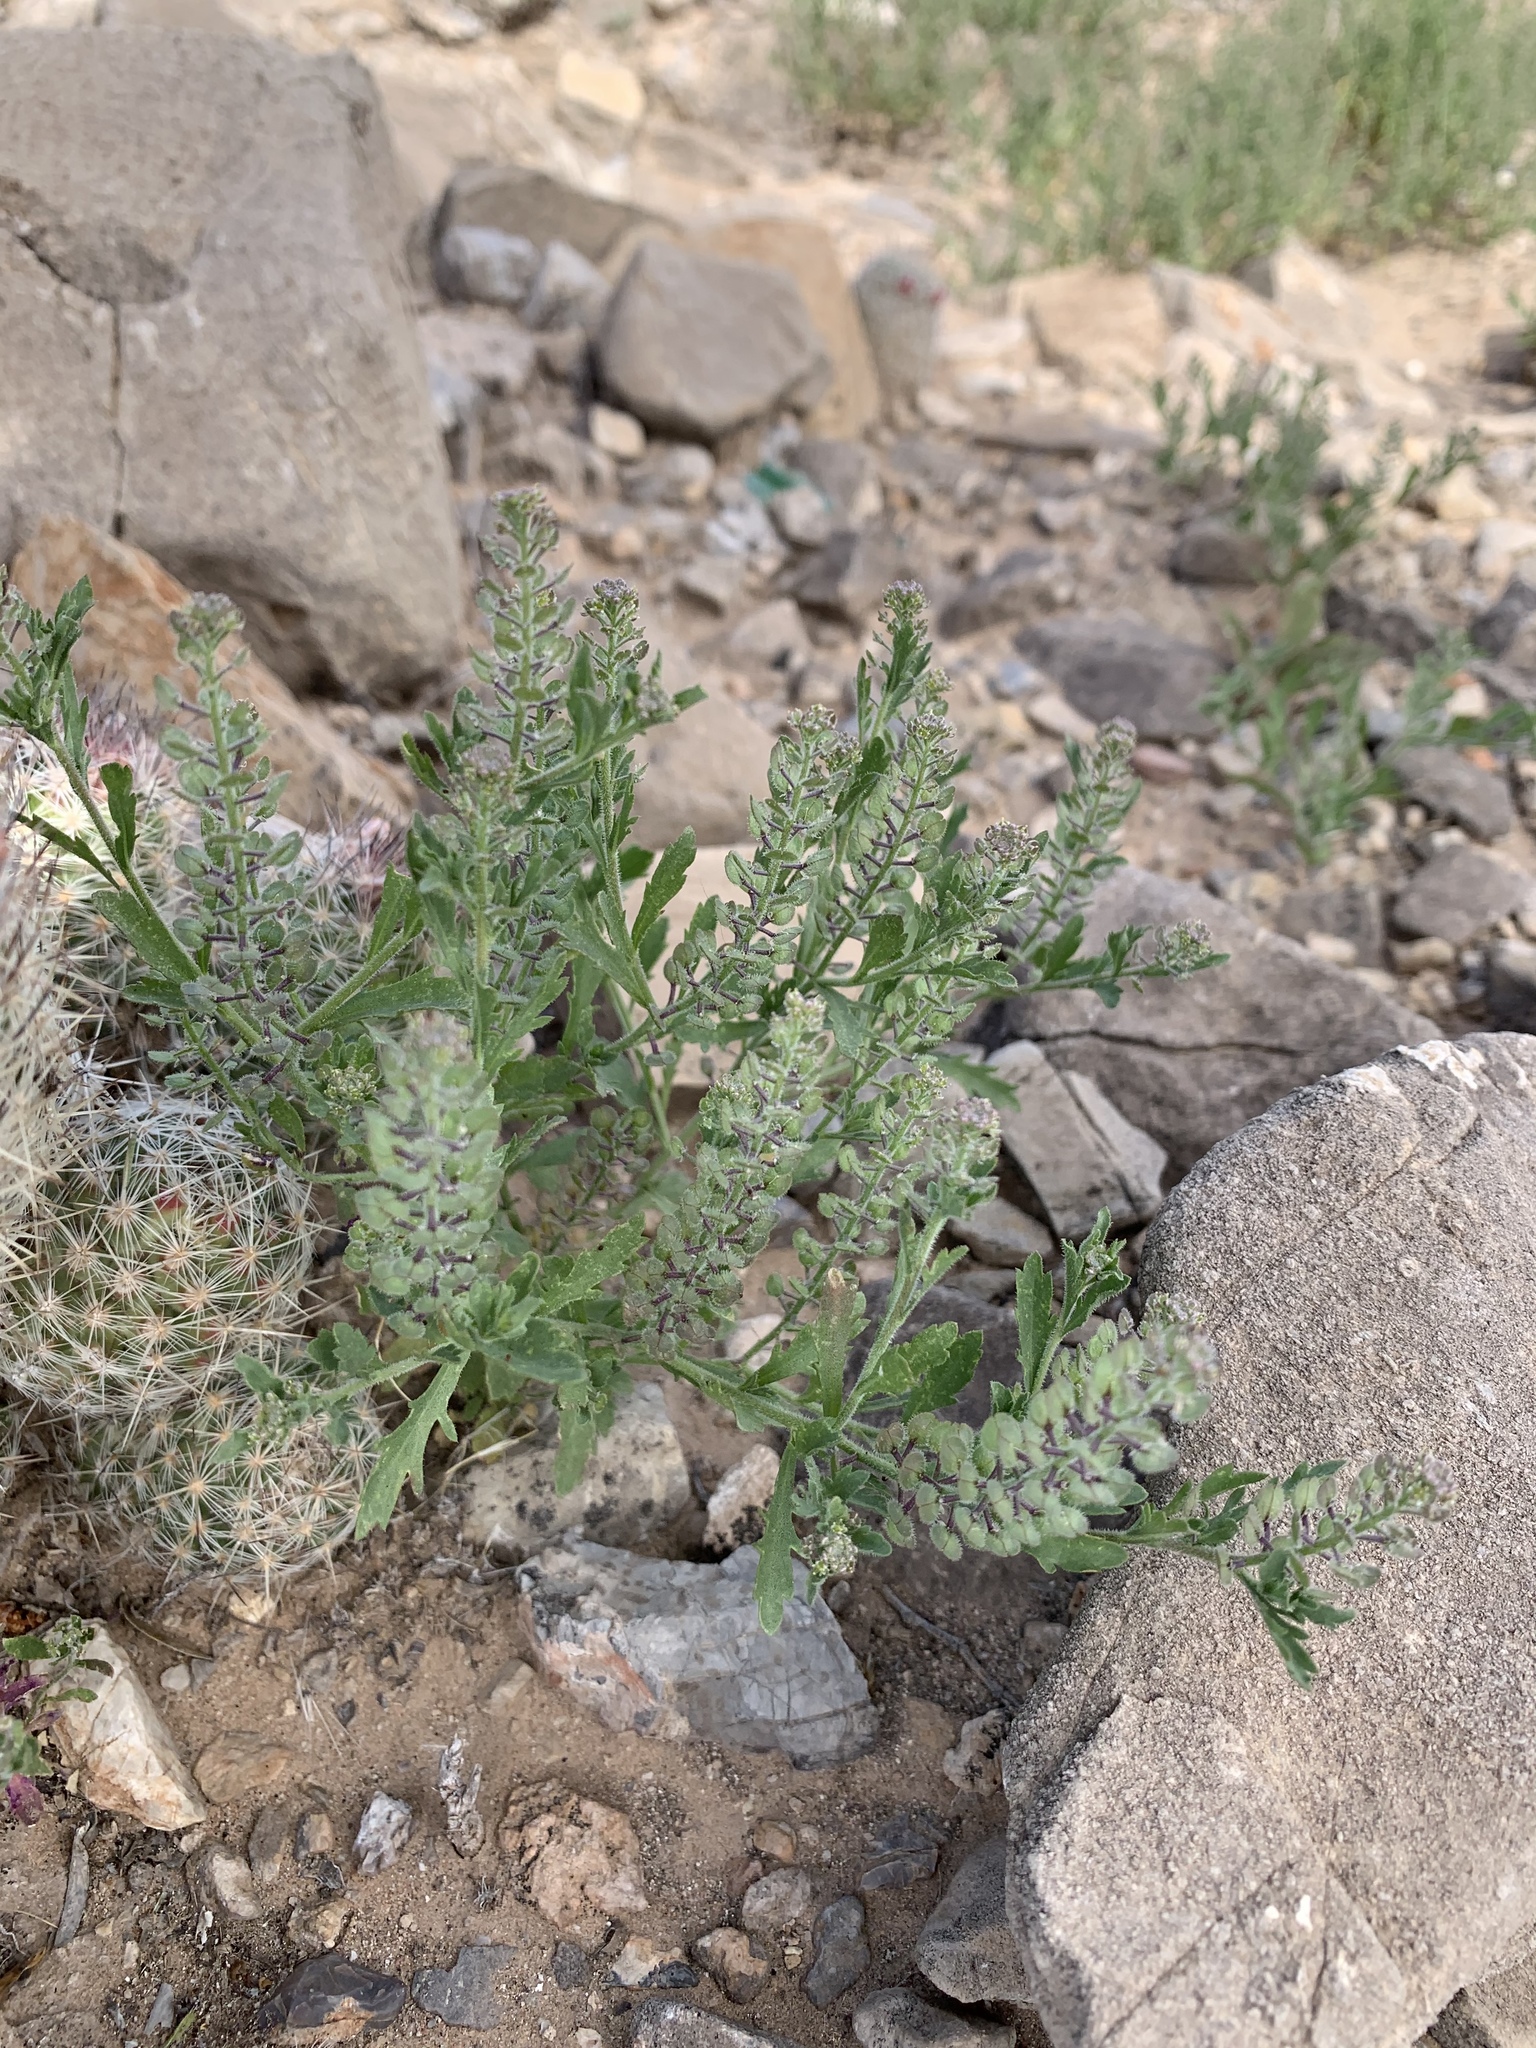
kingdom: Plantae
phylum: Tracheophyta
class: Magnoliopsida
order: Brassicales
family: Brassicaceae
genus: Lepidium
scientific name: Lepidium lasiocarpum
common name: Hairy-pod pepperwort
